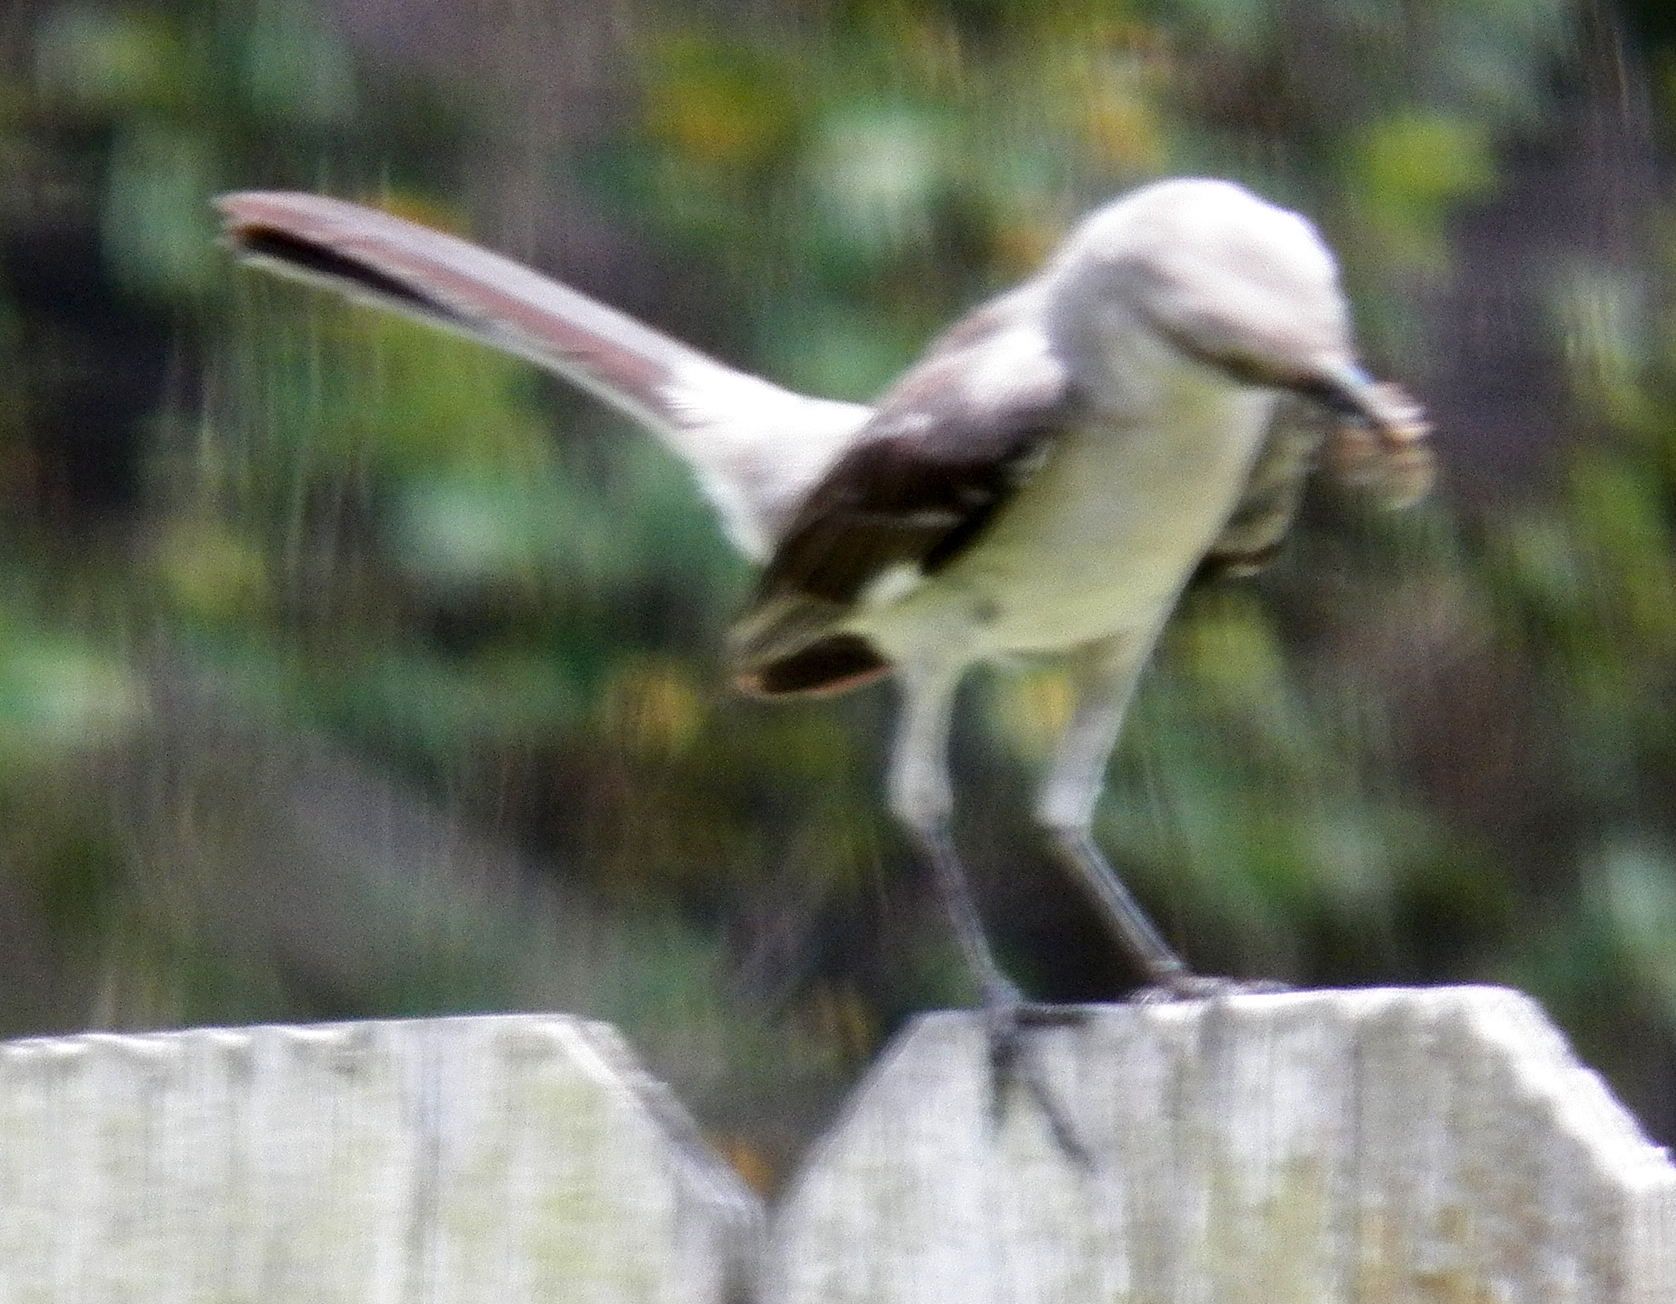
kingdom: Animalia
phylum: Chordata
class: Aves
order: Passeriformes
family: Mimidae
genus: Mimus
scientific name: Mimus polyglottos
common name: Northern mockingbird
